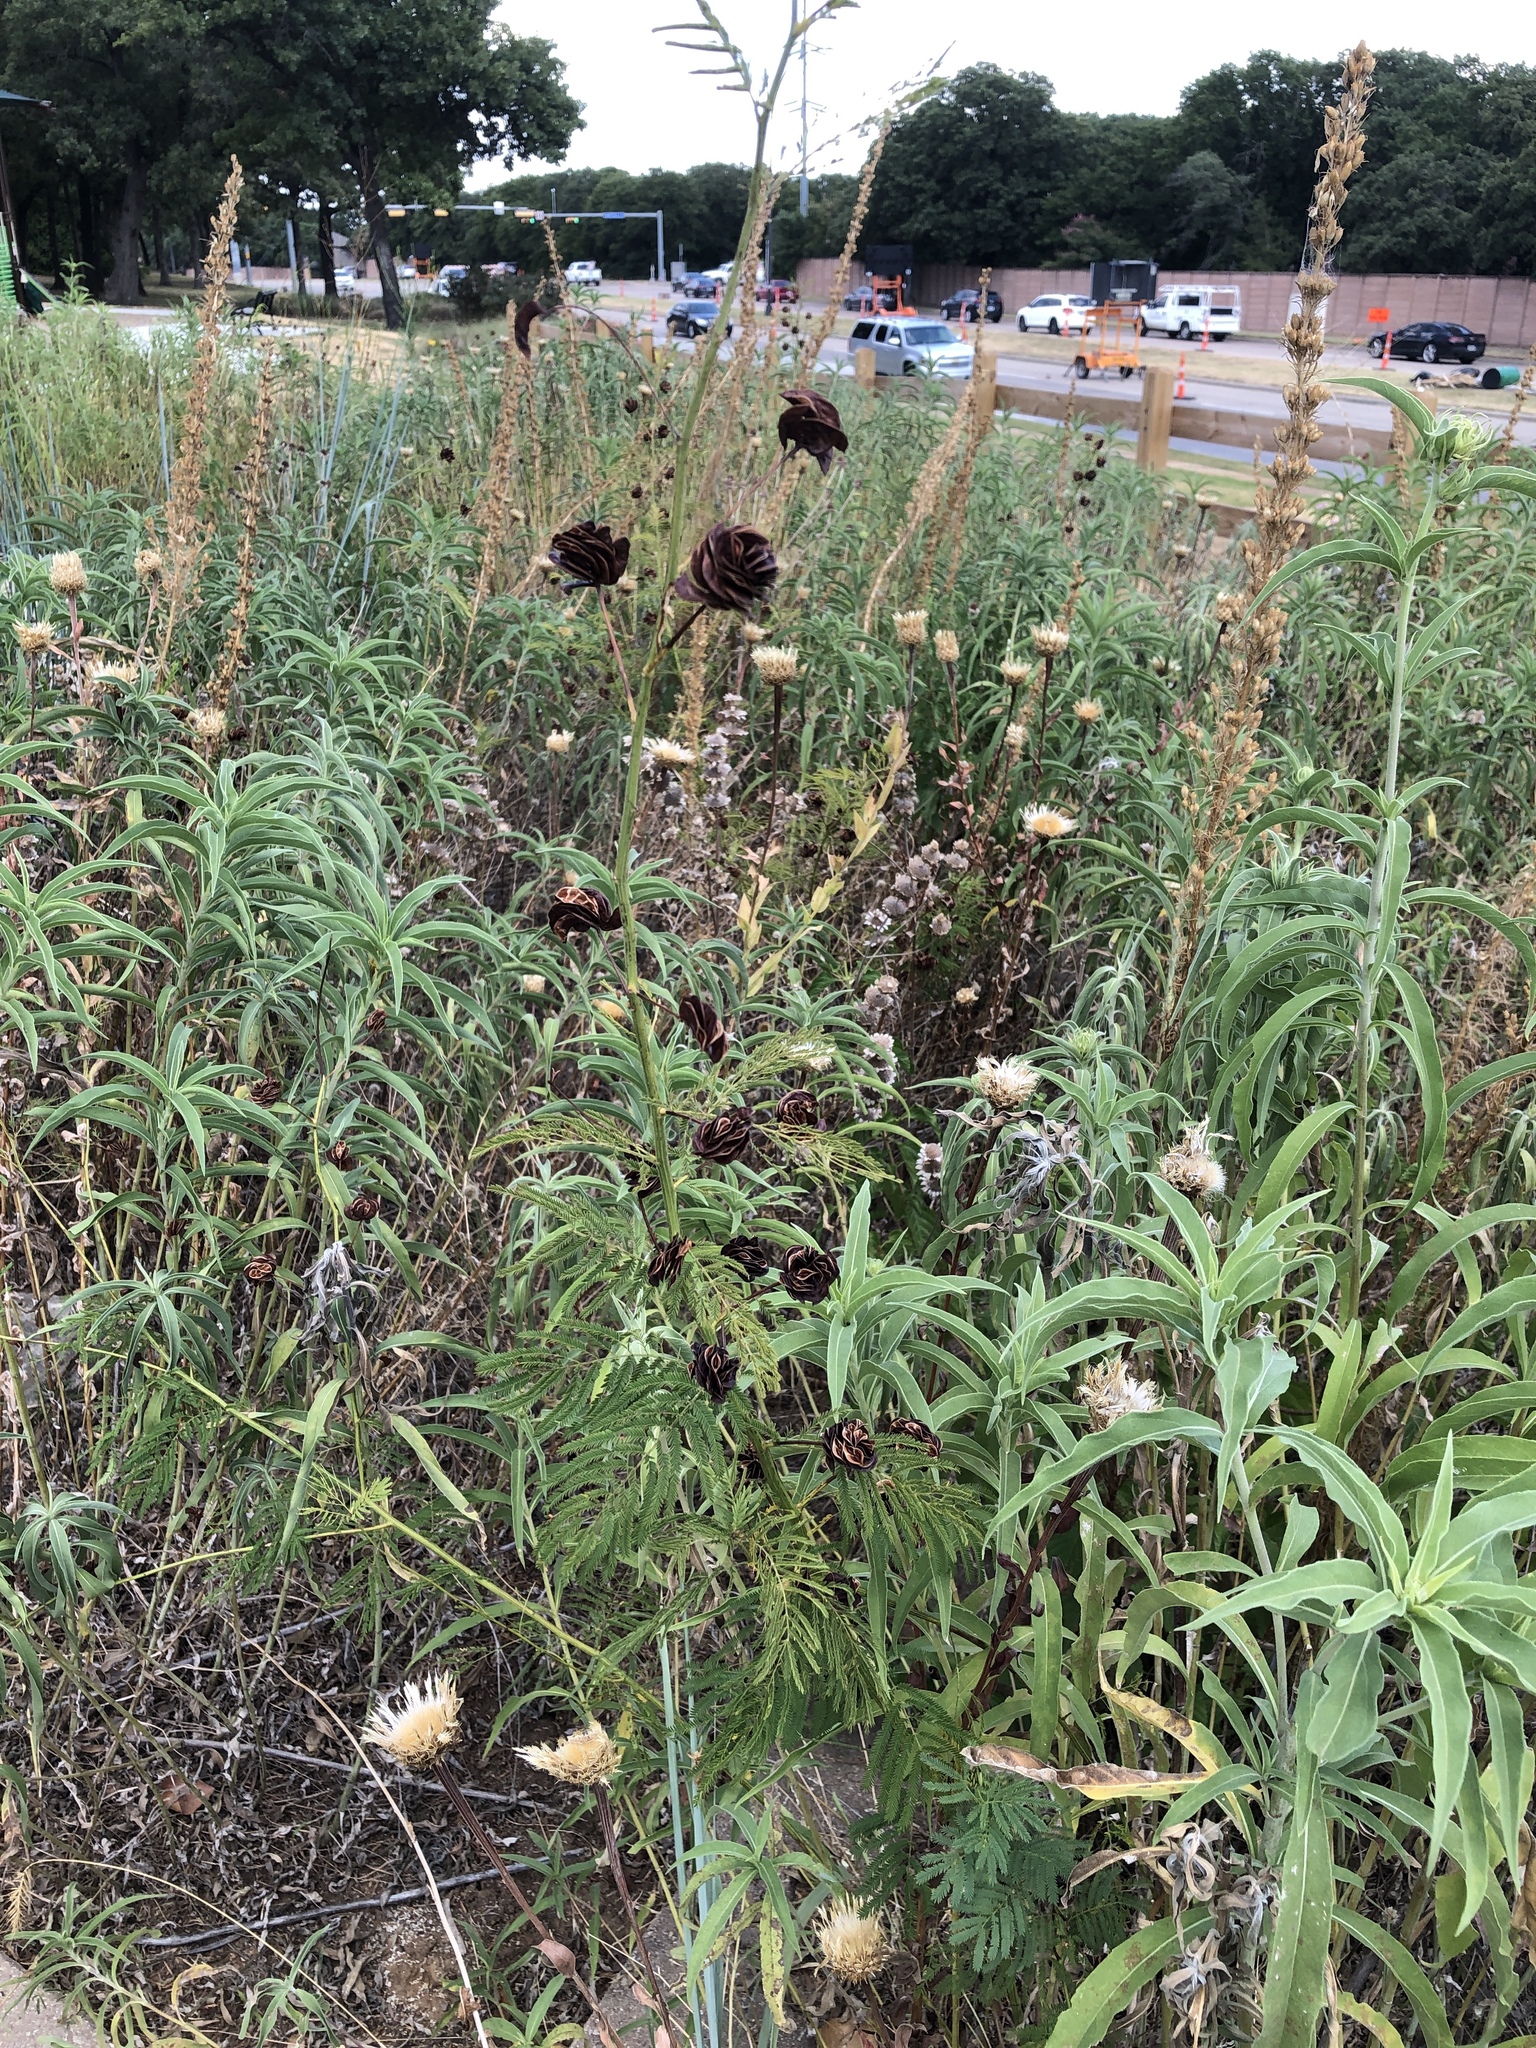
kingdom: Plantae
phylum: Tracheophyta
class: Magnoliopsida
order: Fabales
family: Fabaceae
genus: Desmanthus
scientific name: Desmanthus illinoensis
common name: Illinois bundle-flower
